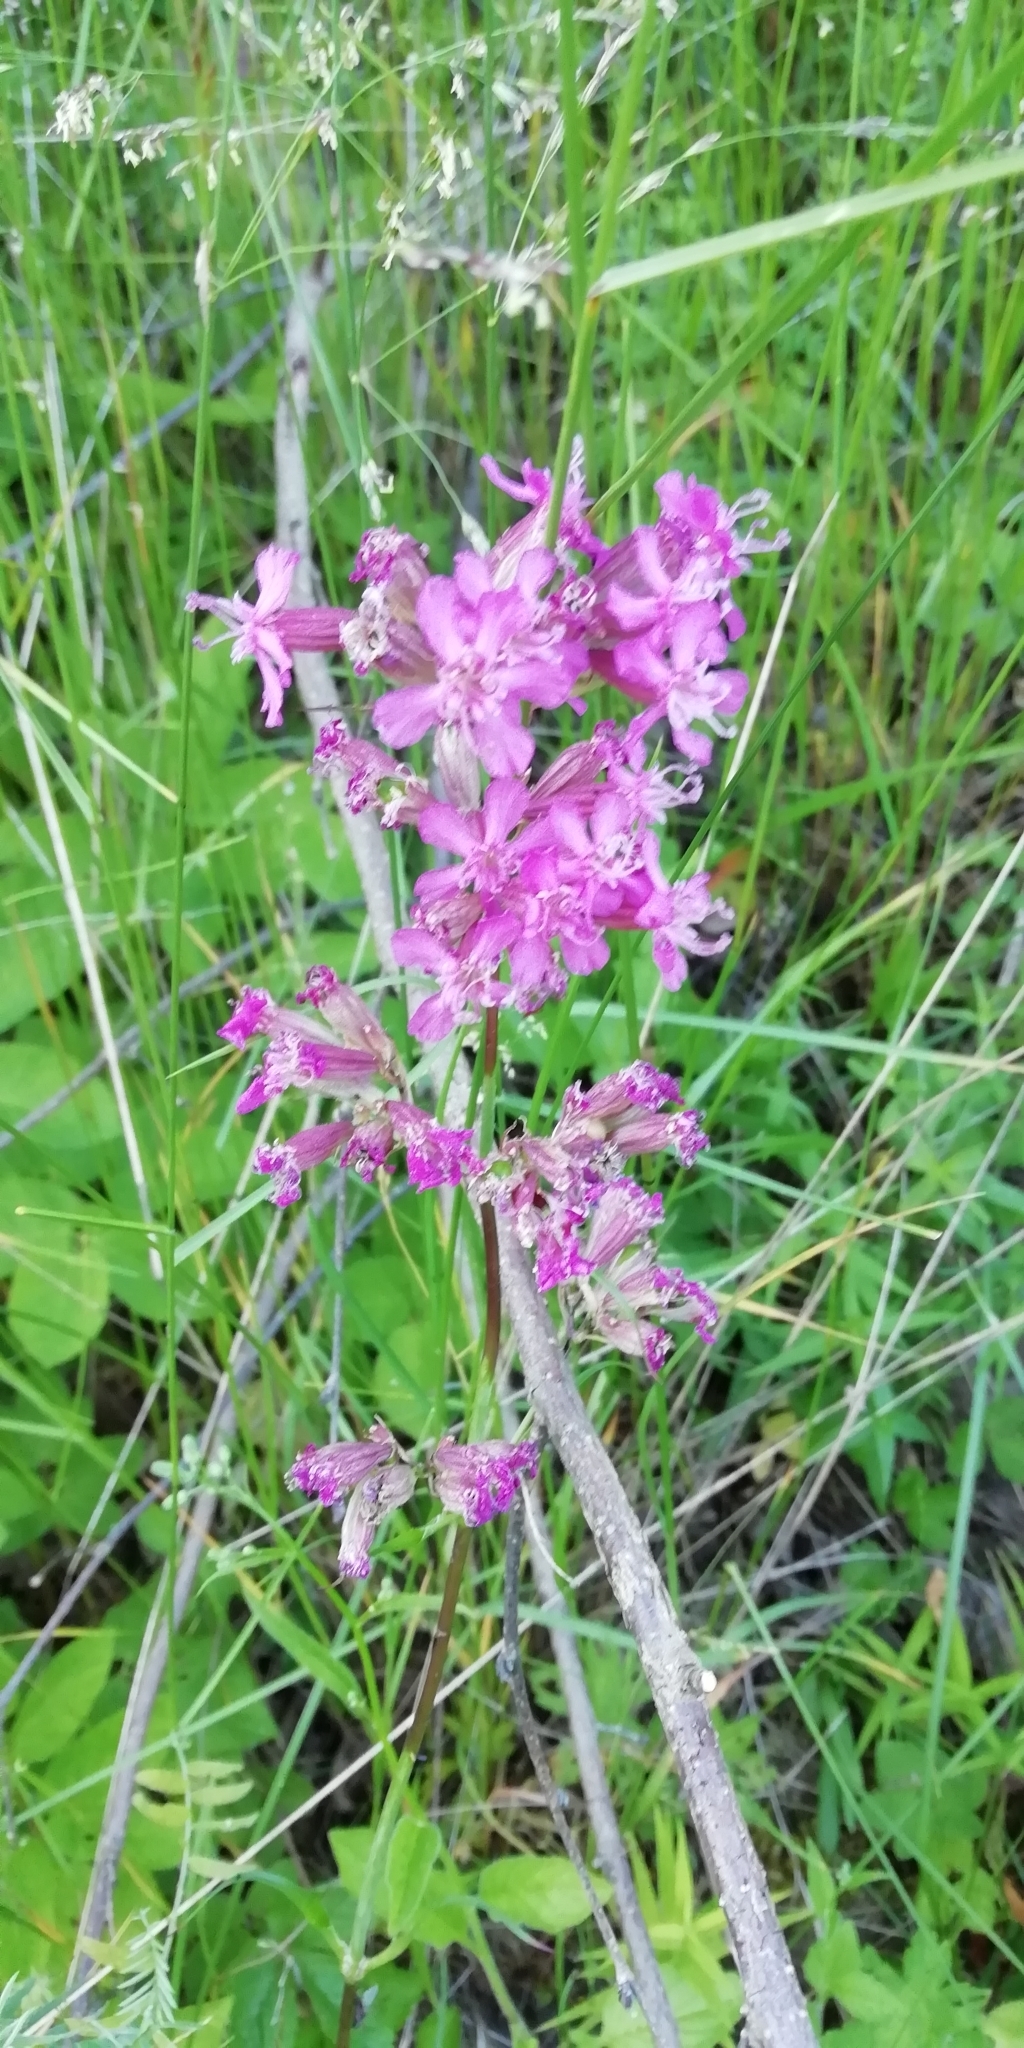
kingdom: Plantae
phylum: Tracheophyta
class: Magnoliopsida
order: Caryophyllales
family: Caryophyllaceae
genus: Viscaria
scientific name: Viscaria vulgaris
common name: Clammy campion
